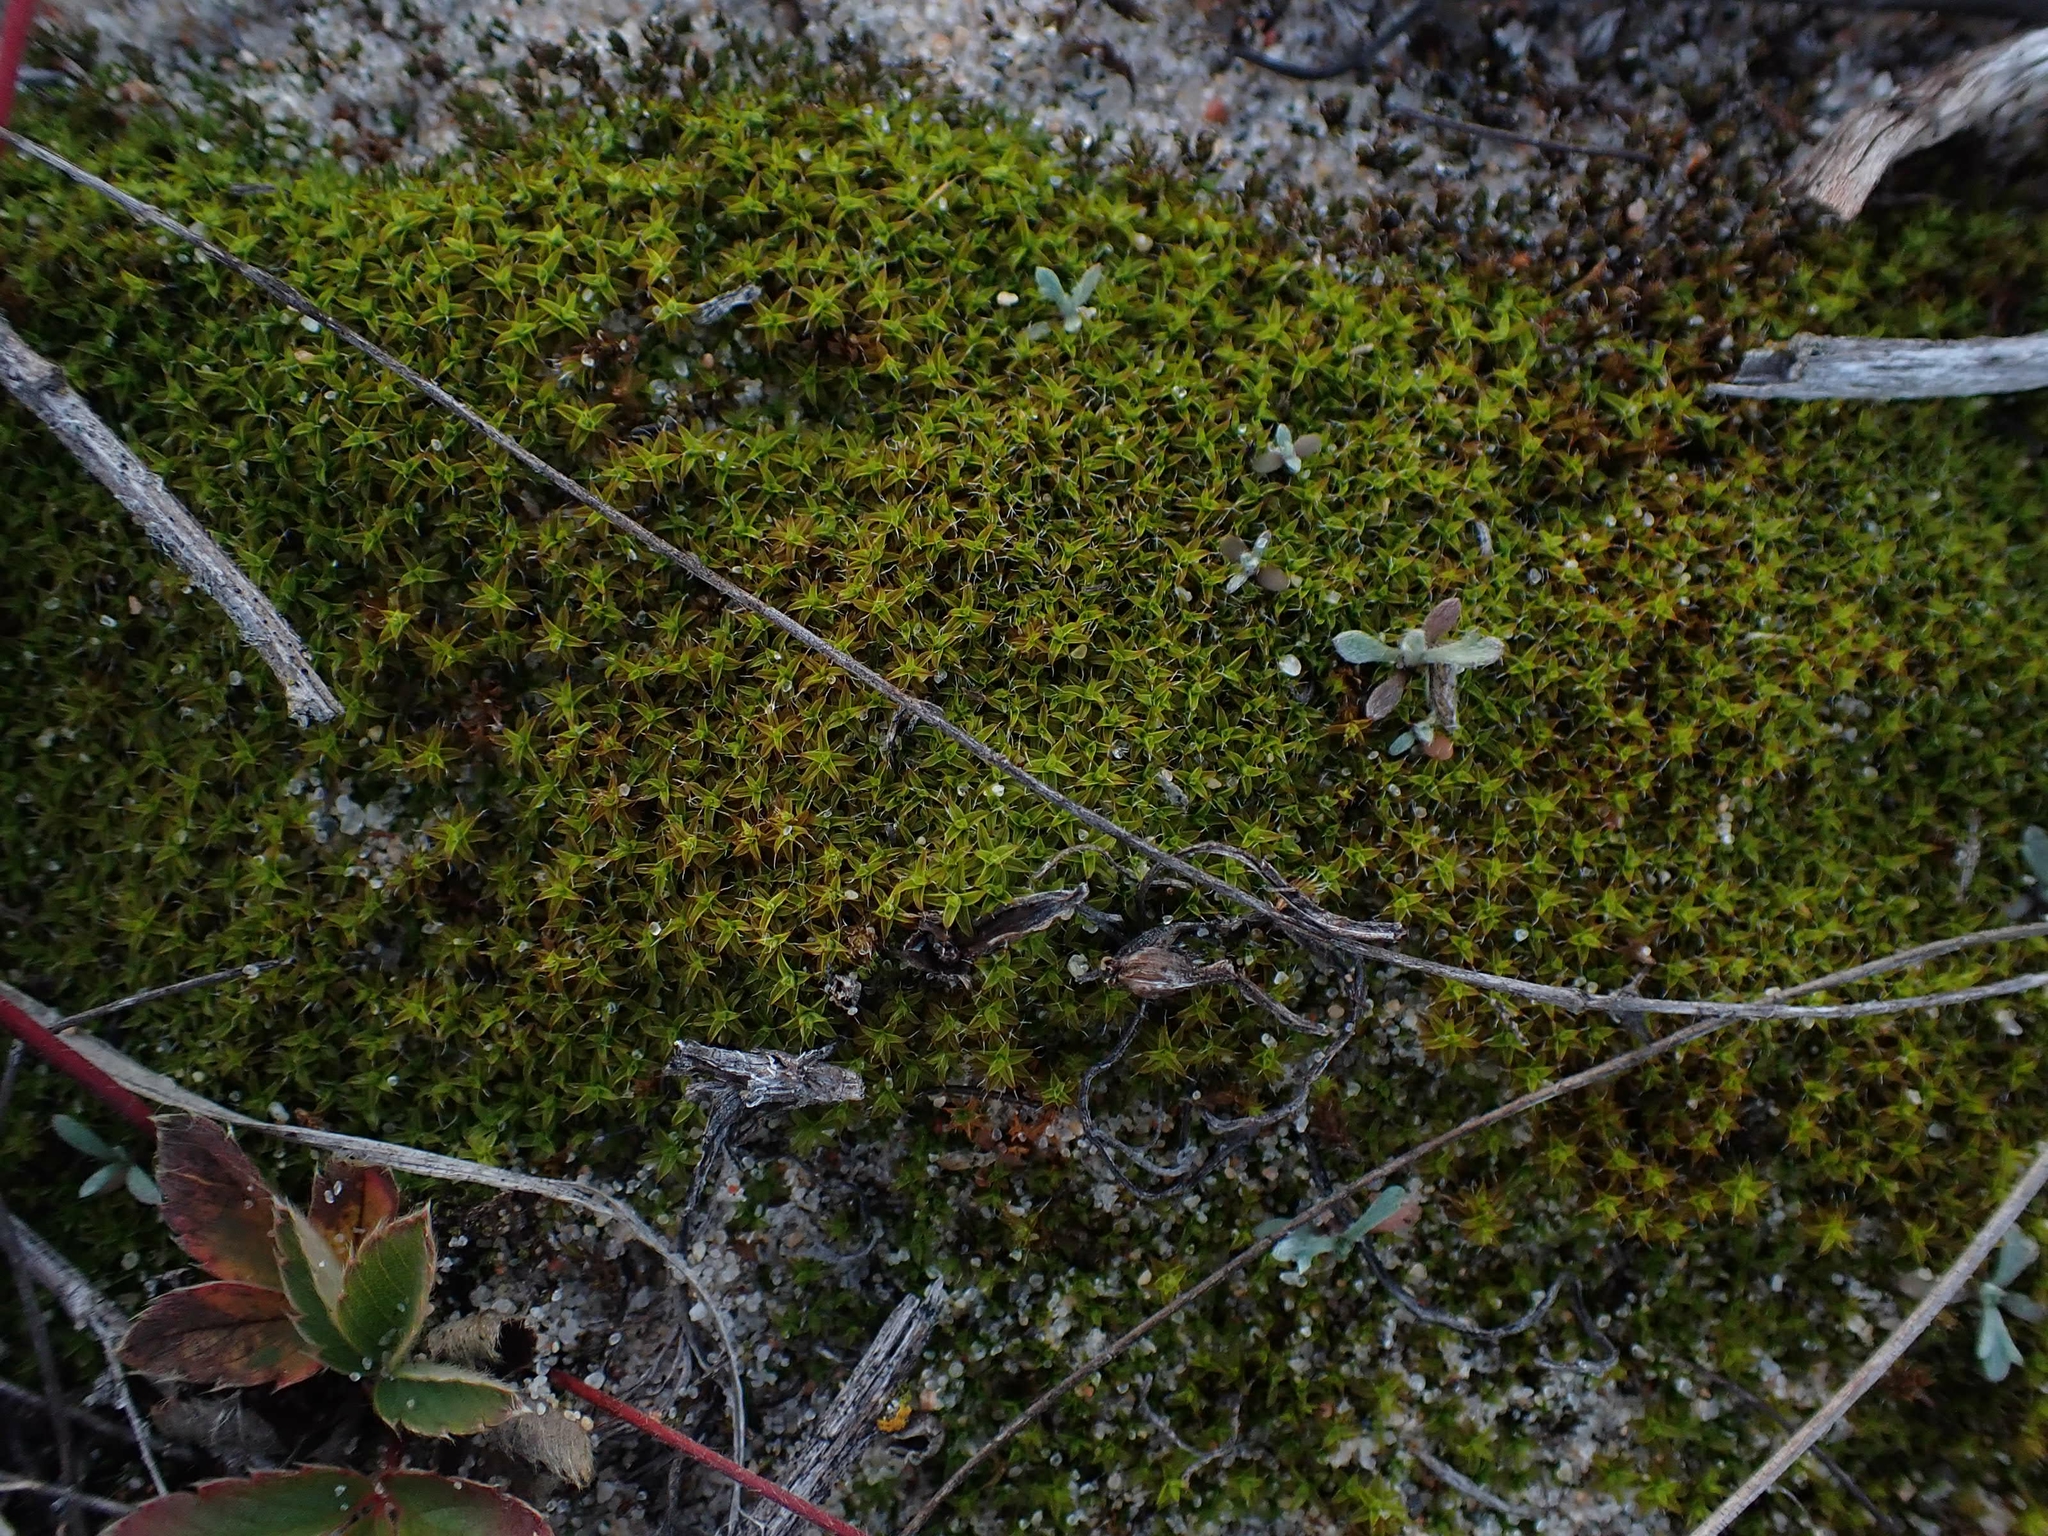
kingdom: Plantae
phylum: Bryophyta
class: Bryopsida
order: Pottiales
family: Pottiaceae
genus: Syntrichia
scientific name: Syntrichia ruralis
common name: Sidewalk screw moss
